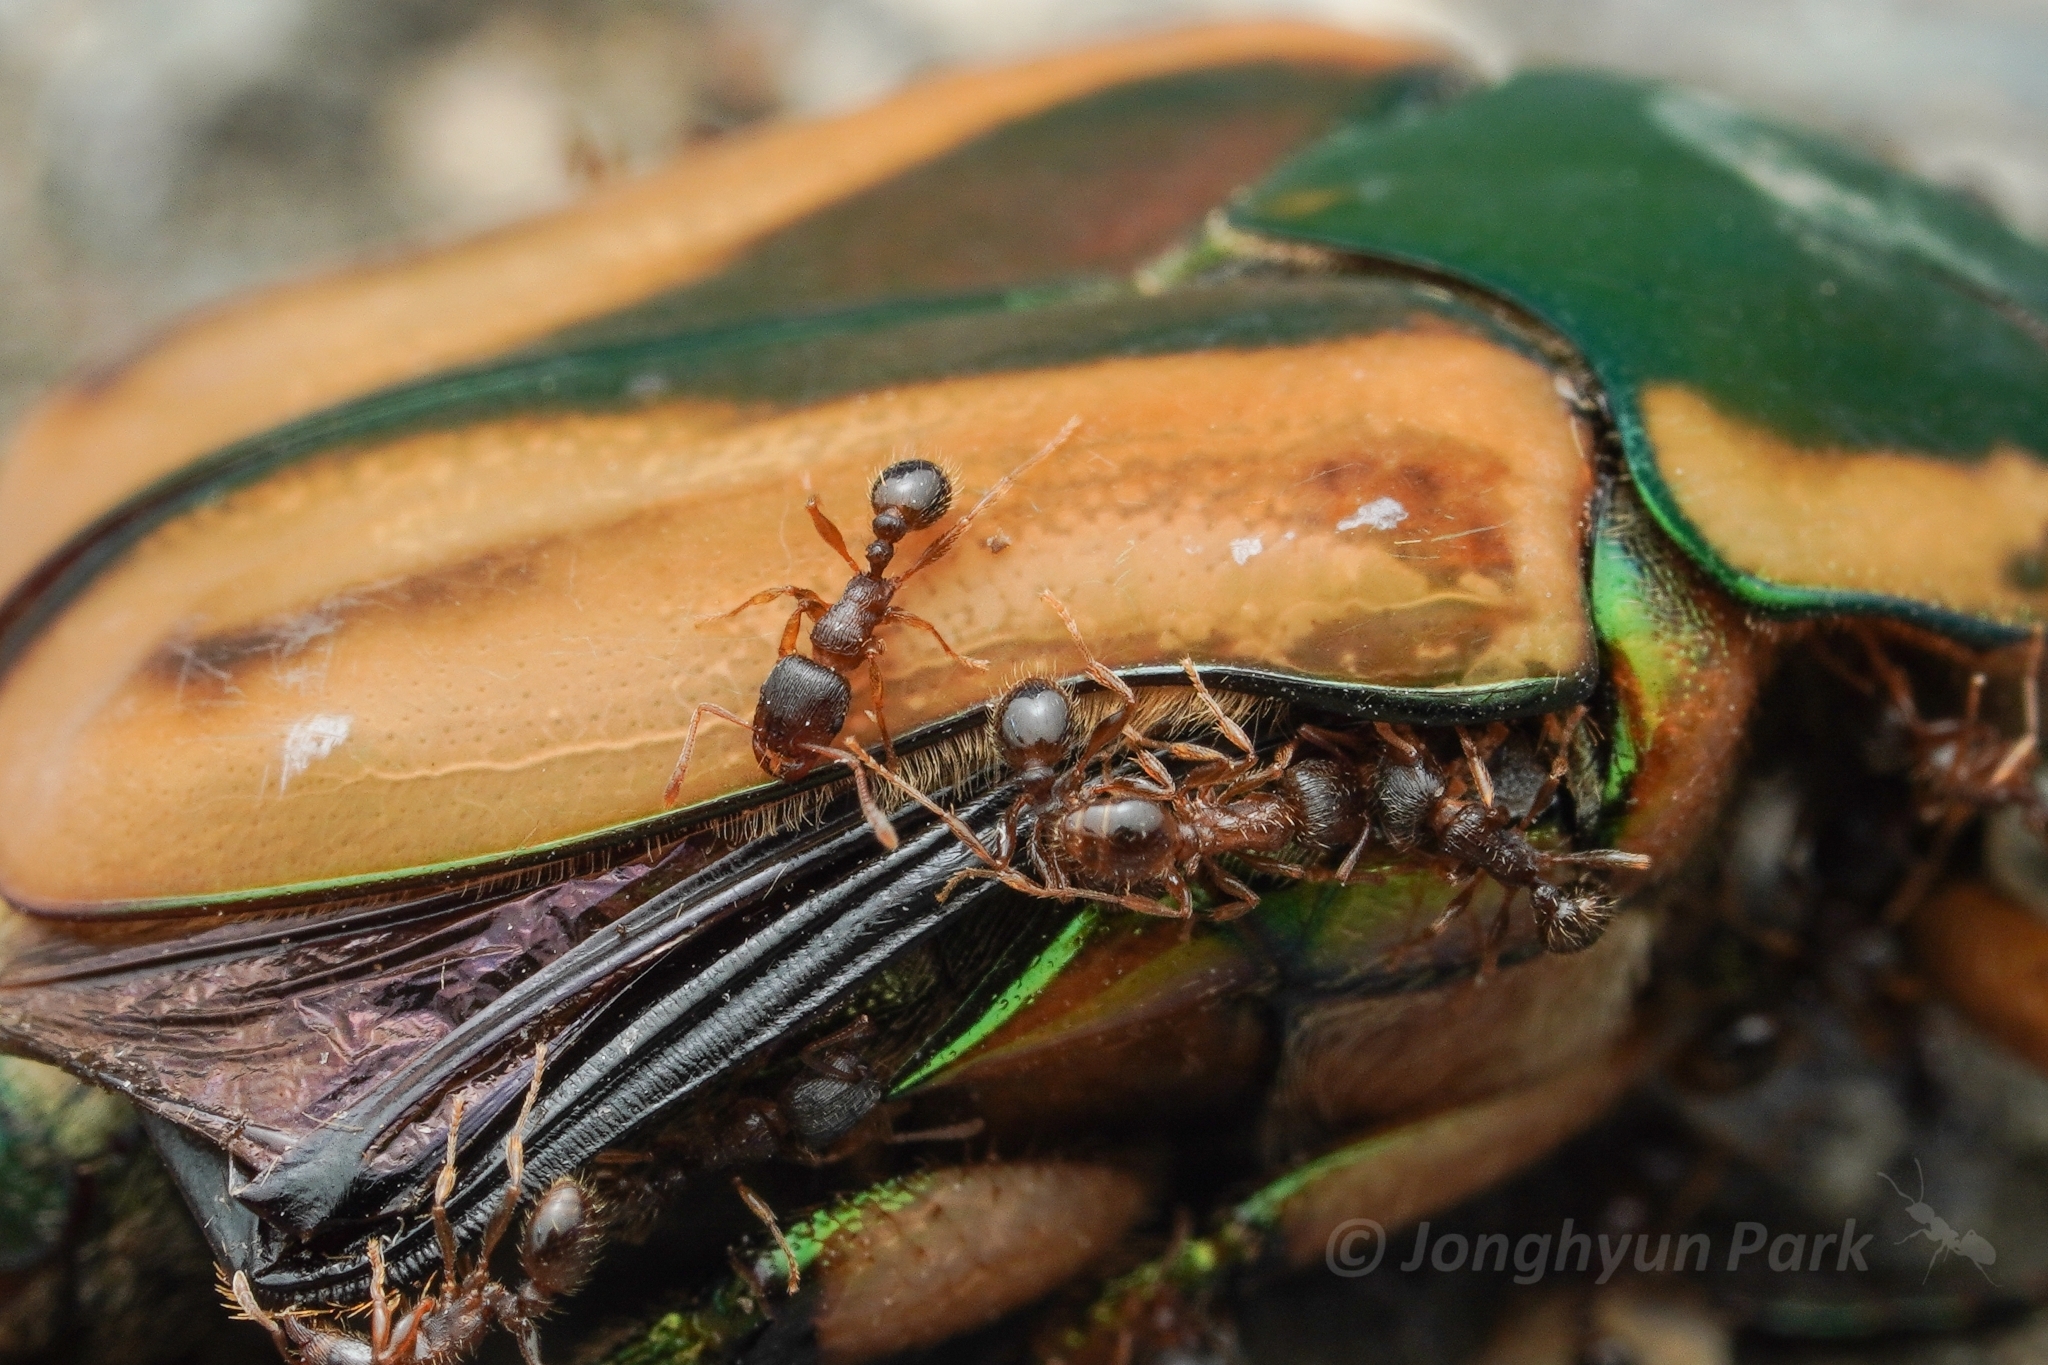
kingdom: Animalia
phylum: Arthropoda
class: Insecta
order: Hymenoptera
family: Formicidae
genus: Tetramorium
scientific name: Tetramorium immigrans
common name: Pavement ant
